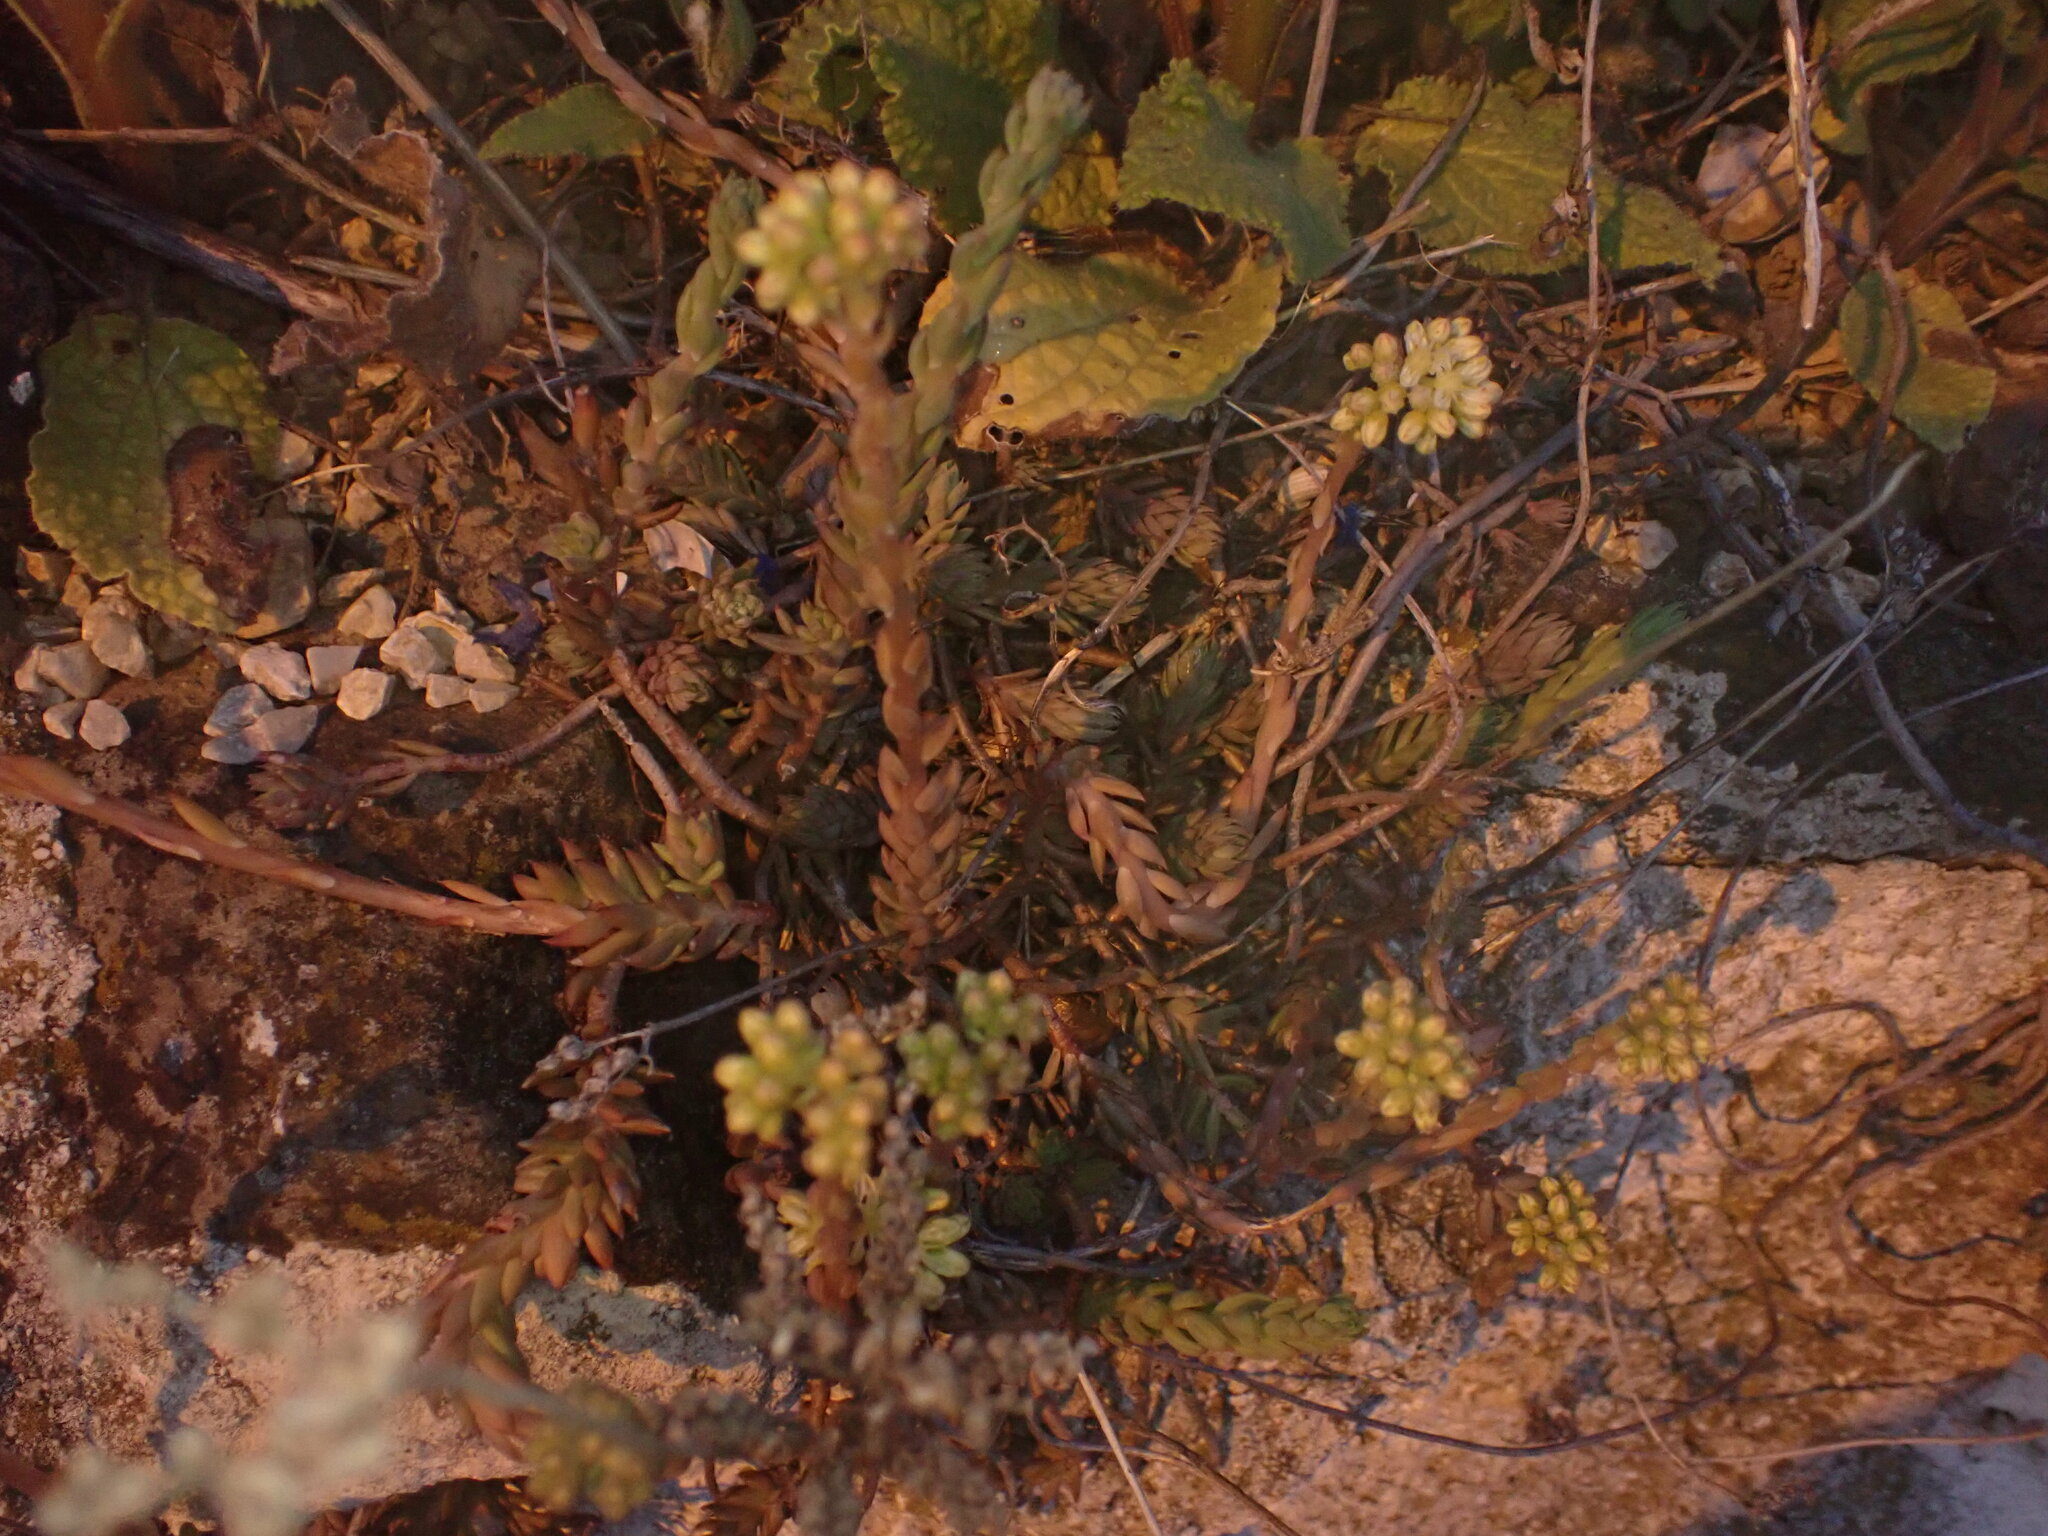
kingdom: Plantae
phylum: Tracheophyta
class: Magnoliopsida
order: Saxifragales
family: Crassulaceae
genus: Petrosedum
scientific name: Petrosedum sediforme
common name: Pale stonecrop
